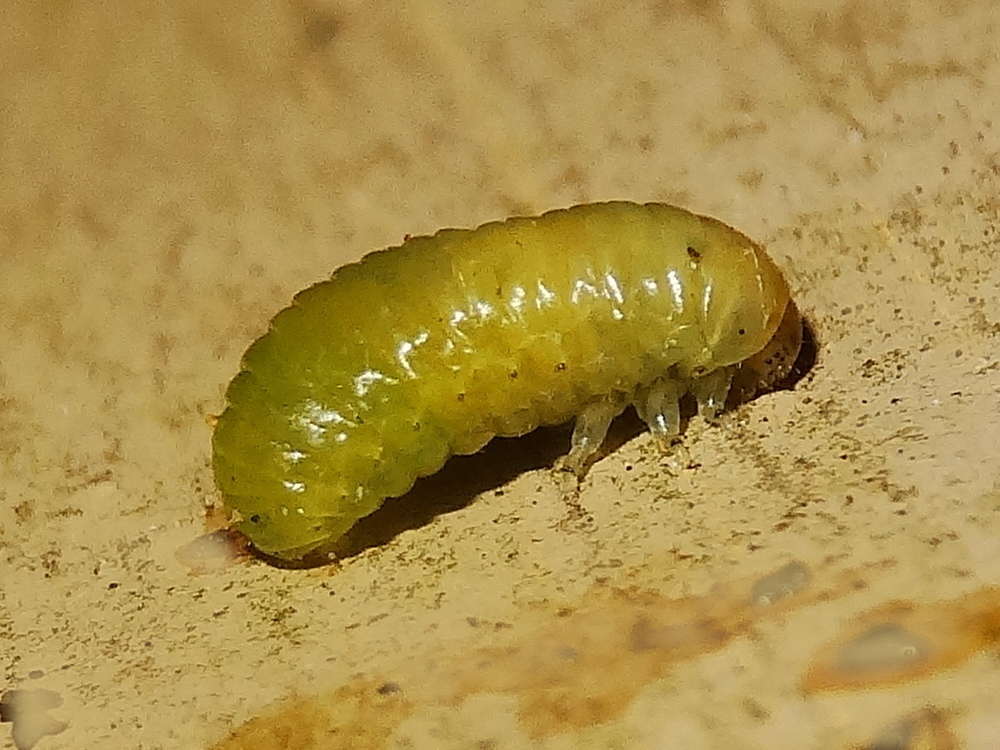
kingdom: Animalia
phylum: Arthropoda
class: Insecta
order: Coleoptera
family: Chrysomelidae
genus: Paropsides
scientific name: Paropsides
